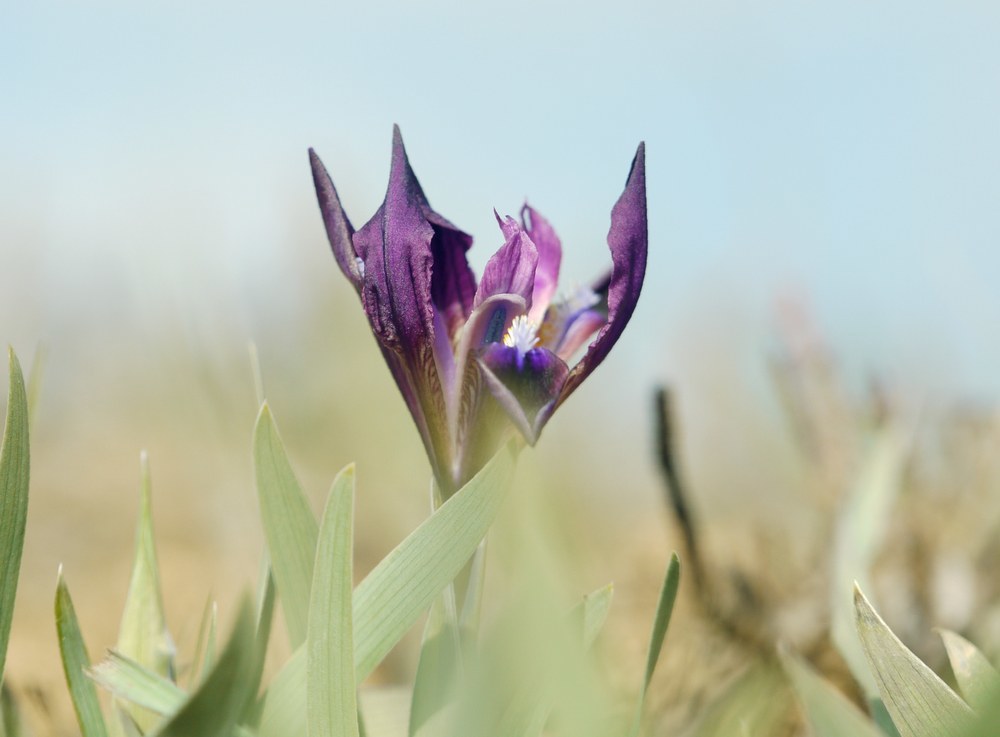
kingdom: Plantae
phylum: Tracheophyta
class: Liliopsida
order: Asparagales
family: Iridaceae
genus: Iris
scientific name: Iris pumila
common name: Dwarf iris
